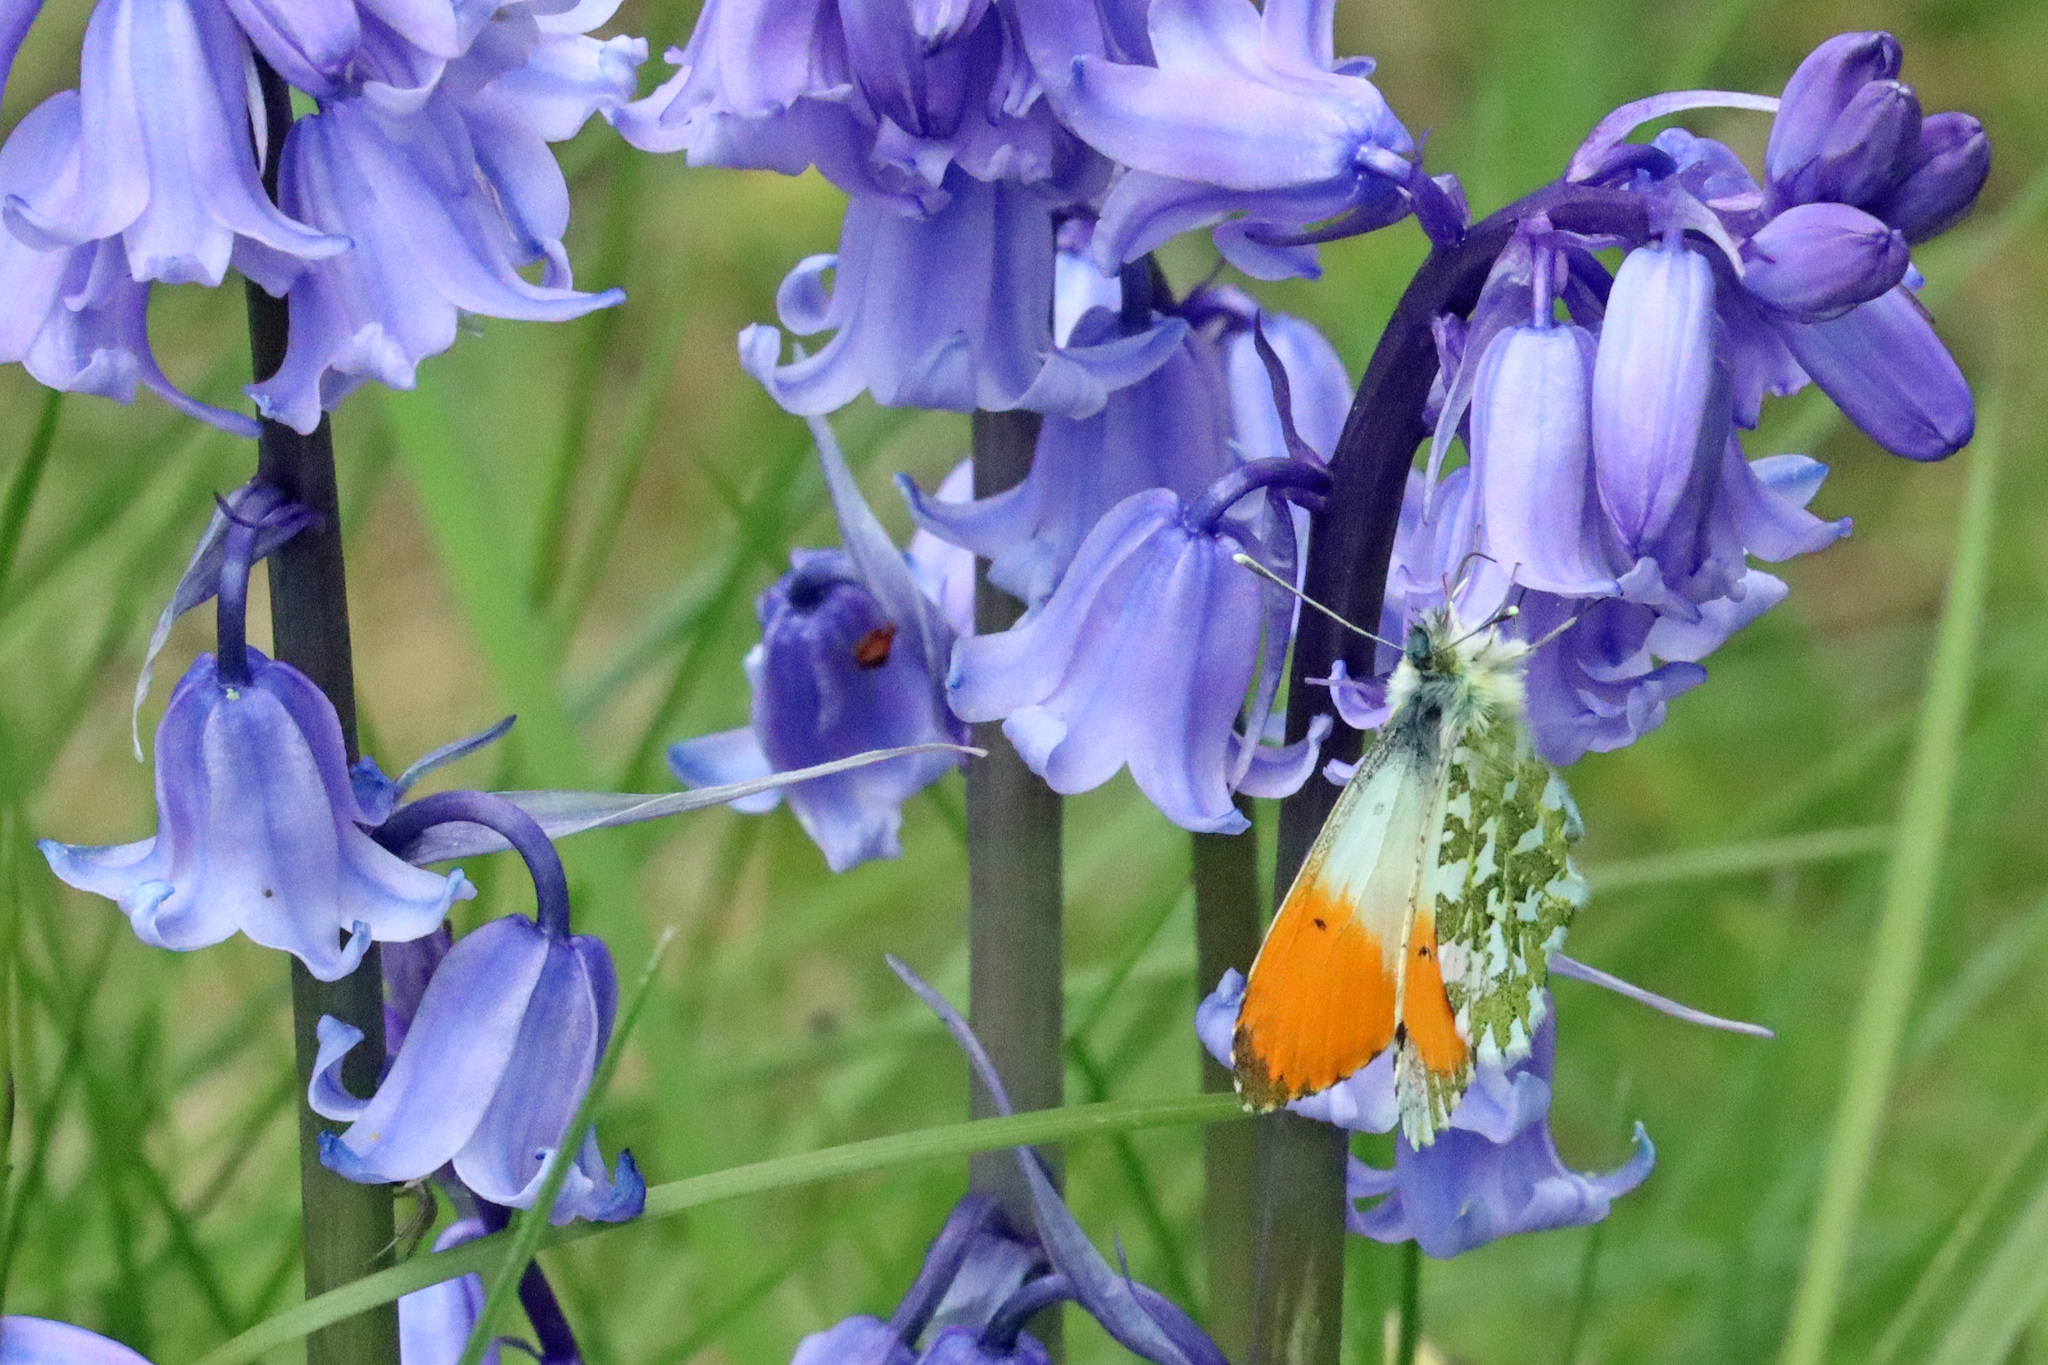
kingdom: Animalia
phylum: Arthropoda
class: Insecta
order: Lepidoptera
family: Pieridae
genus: Anthocharis
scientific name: Anthocharis cardamines
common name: Orange-tip
